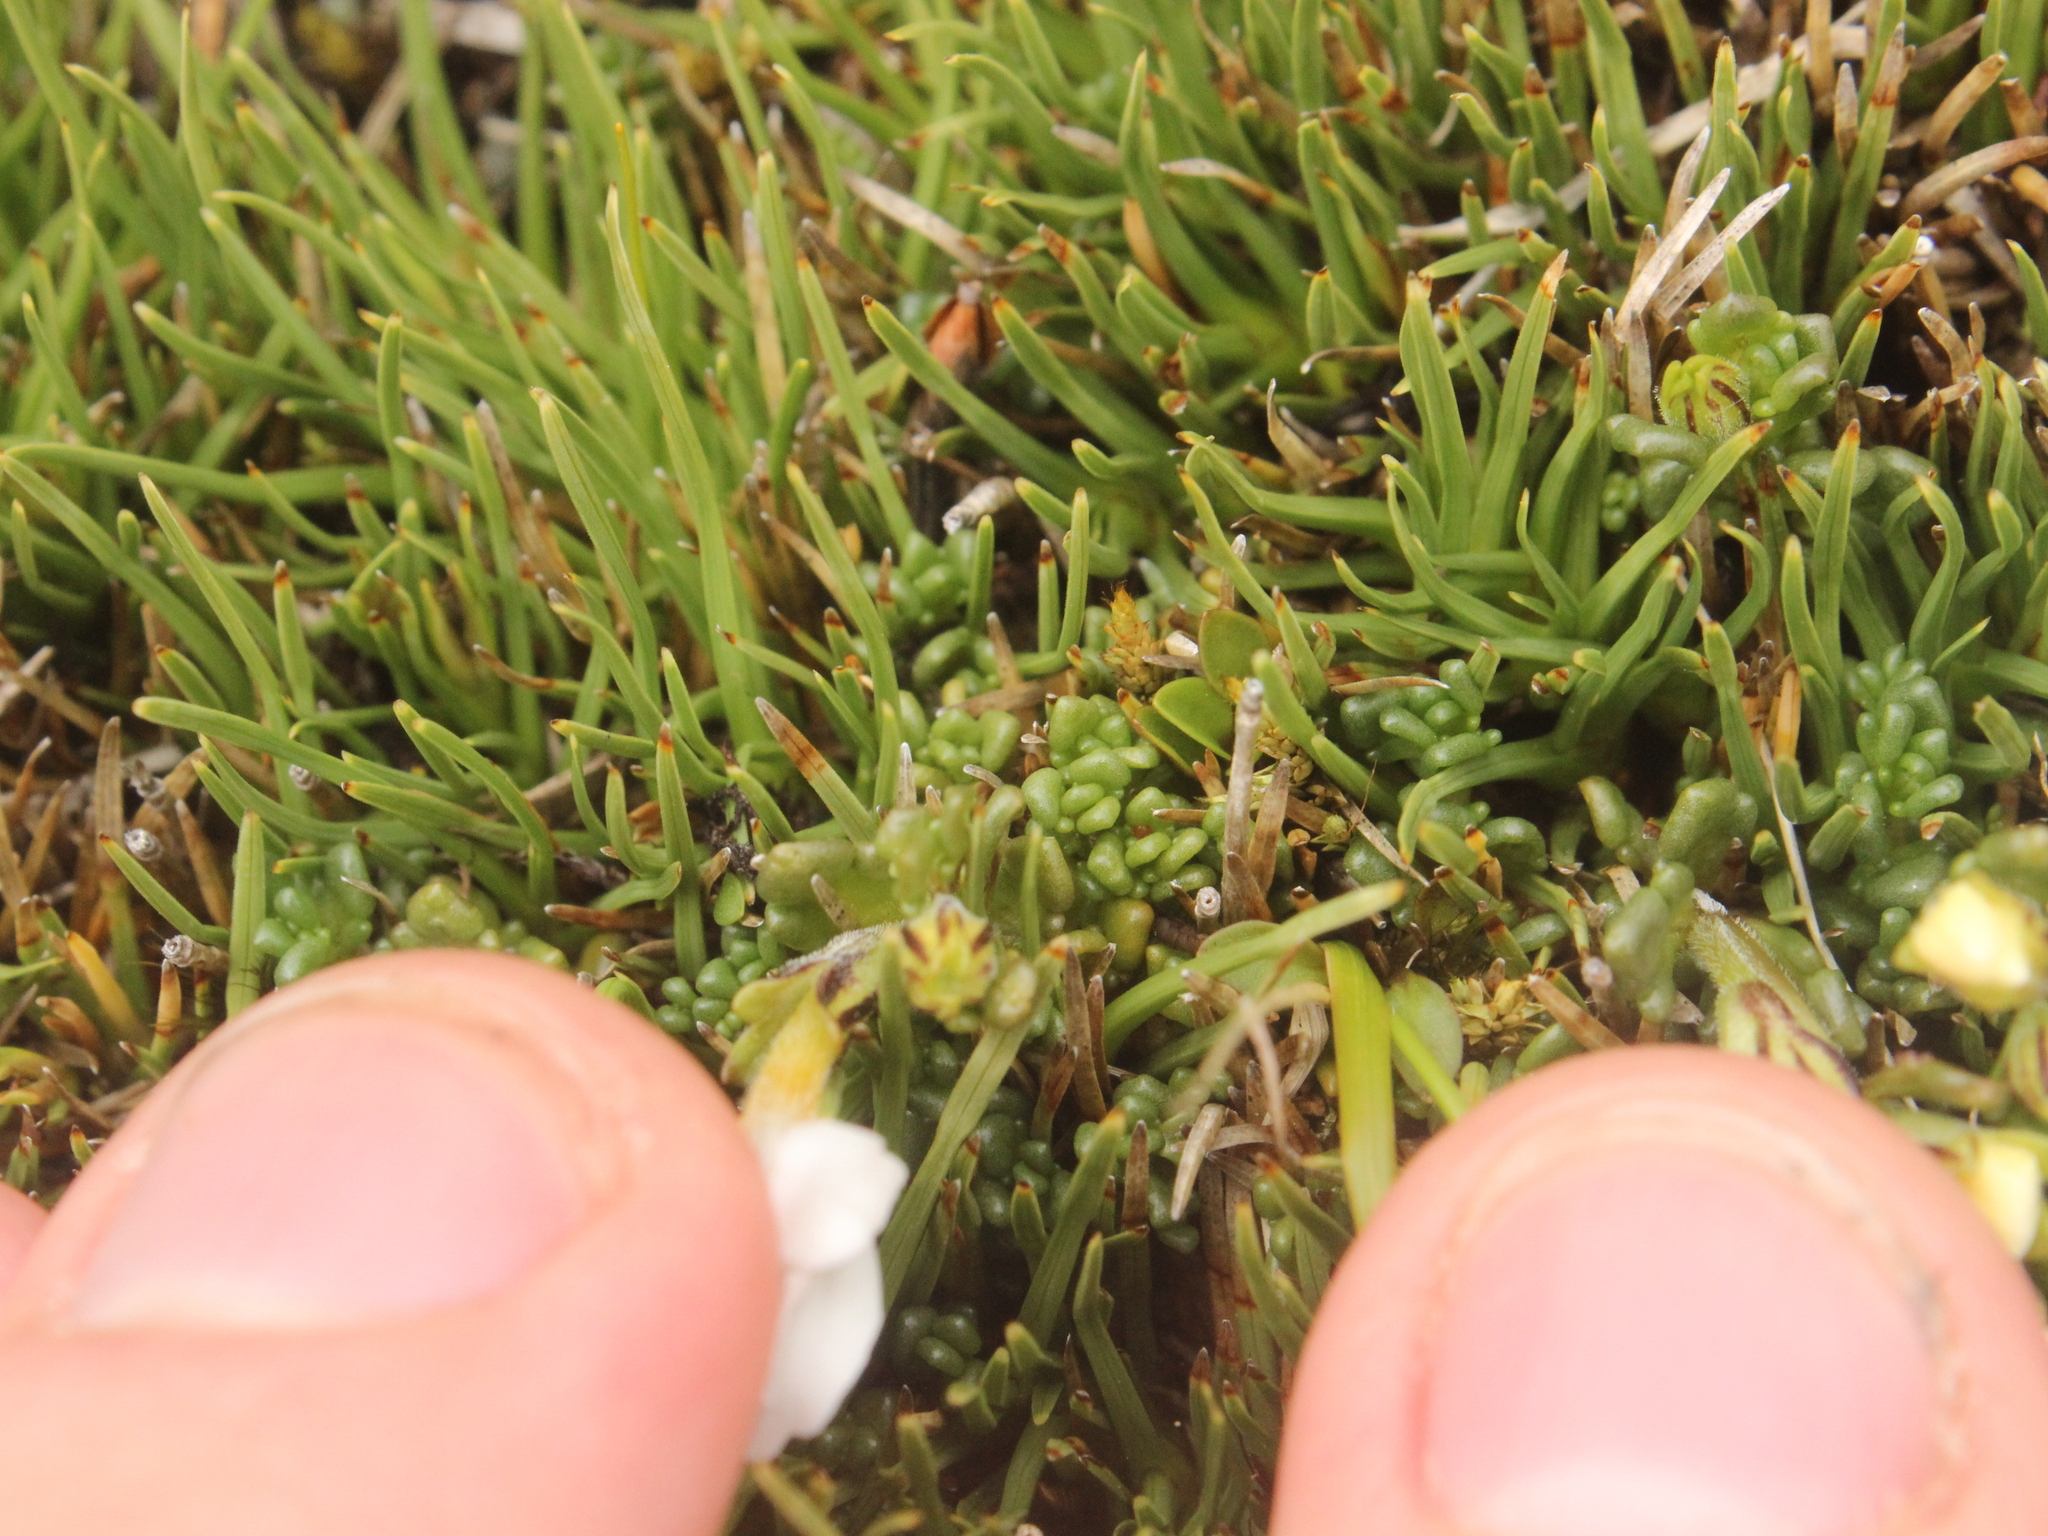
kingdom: Plantae
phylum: Tracheophyta
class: Magnoliopsida
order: Lamiales
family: Orobanchaceae
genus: Euphrasia
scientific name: Euphrasia revoluta
